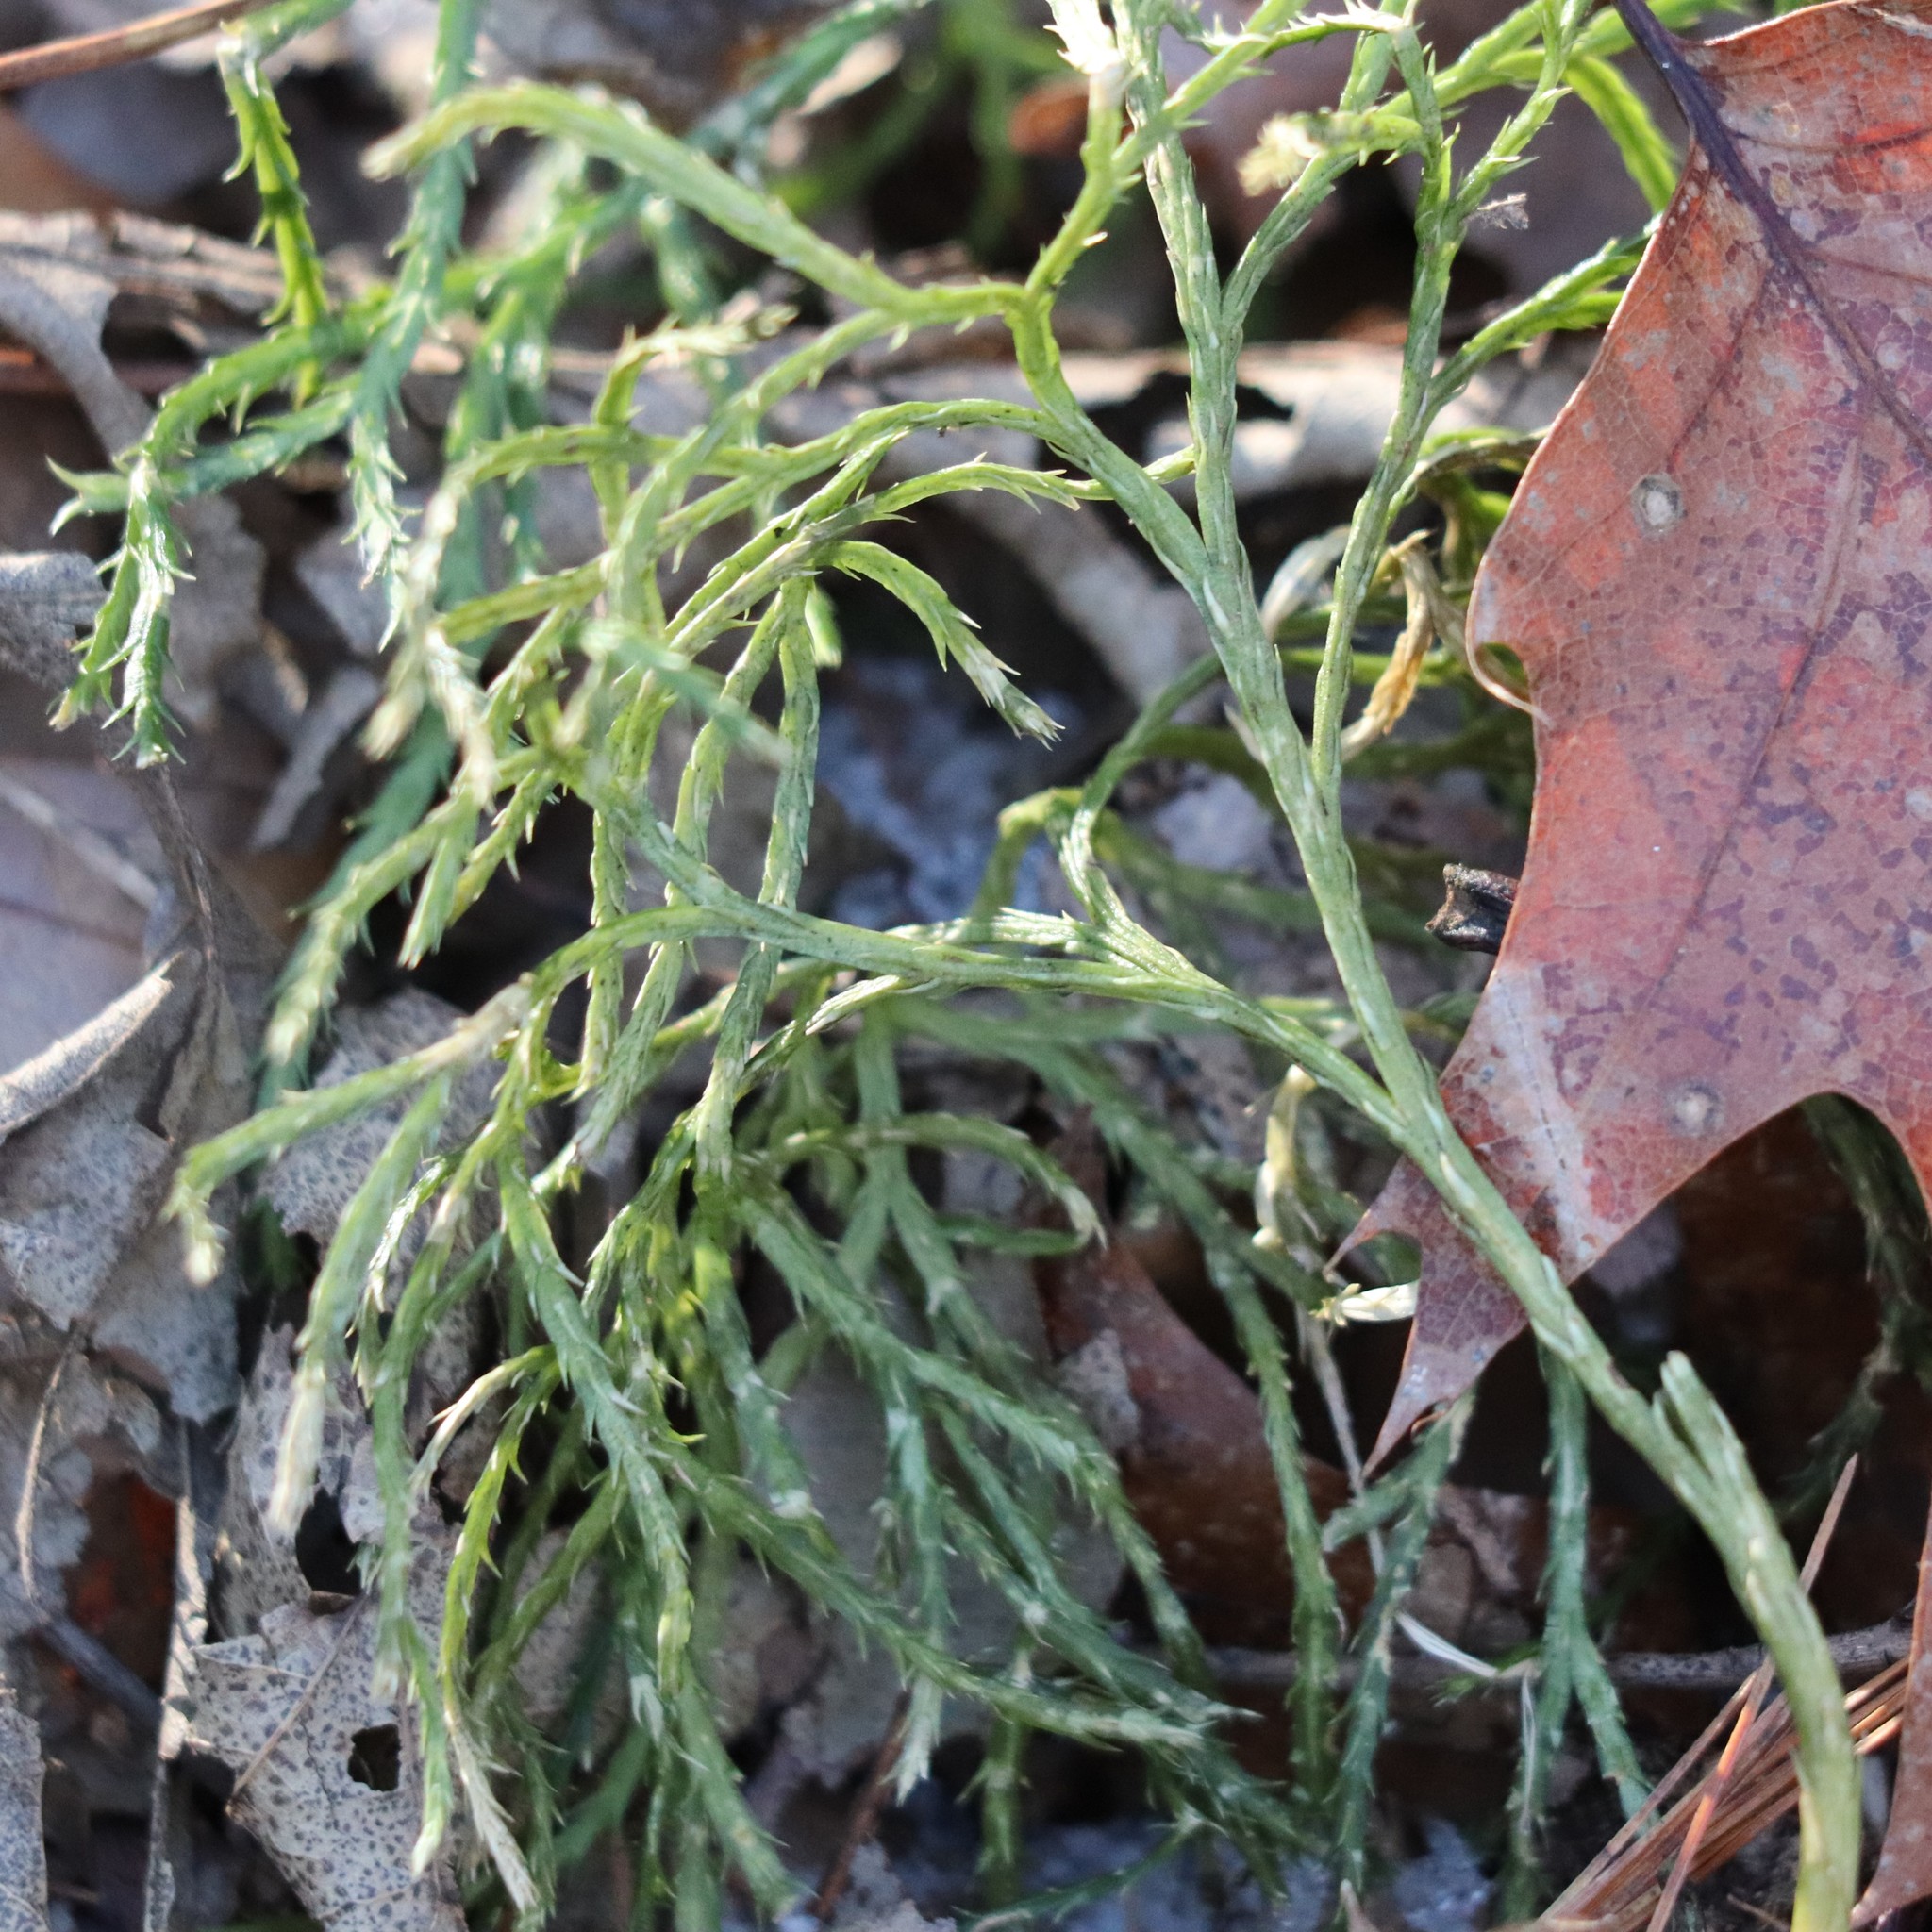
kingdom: Plantae
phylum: Tracheophyta
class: Lycopodiopsida
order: Lycopodiales
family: Lycopodiaceae
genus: Diphasiastrum
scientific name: Diphasiastrum digitatum
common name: Southern running-pine
